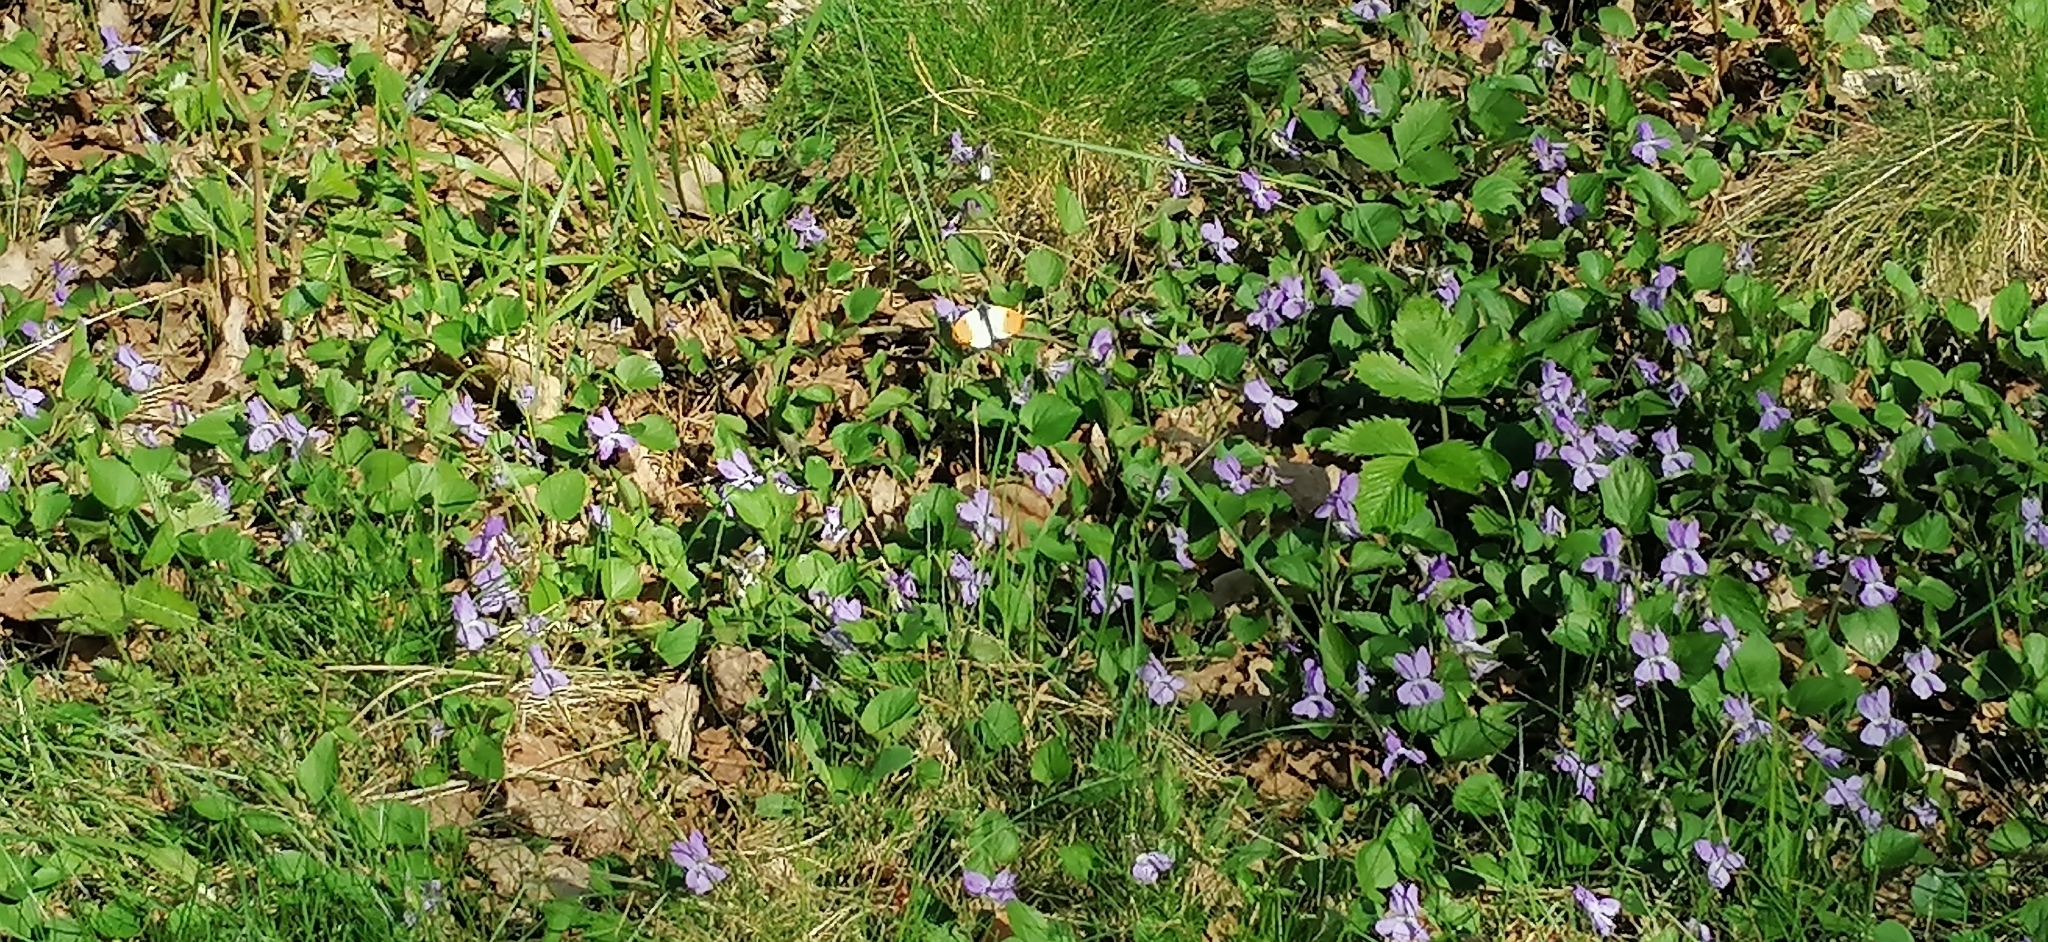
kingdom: Animalia
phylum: Arthropoda
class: Insecta
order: Lepidoptera
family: Pieridae
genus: Anthocharis
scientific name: Anthocharis cardamines
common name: Orange-tip
